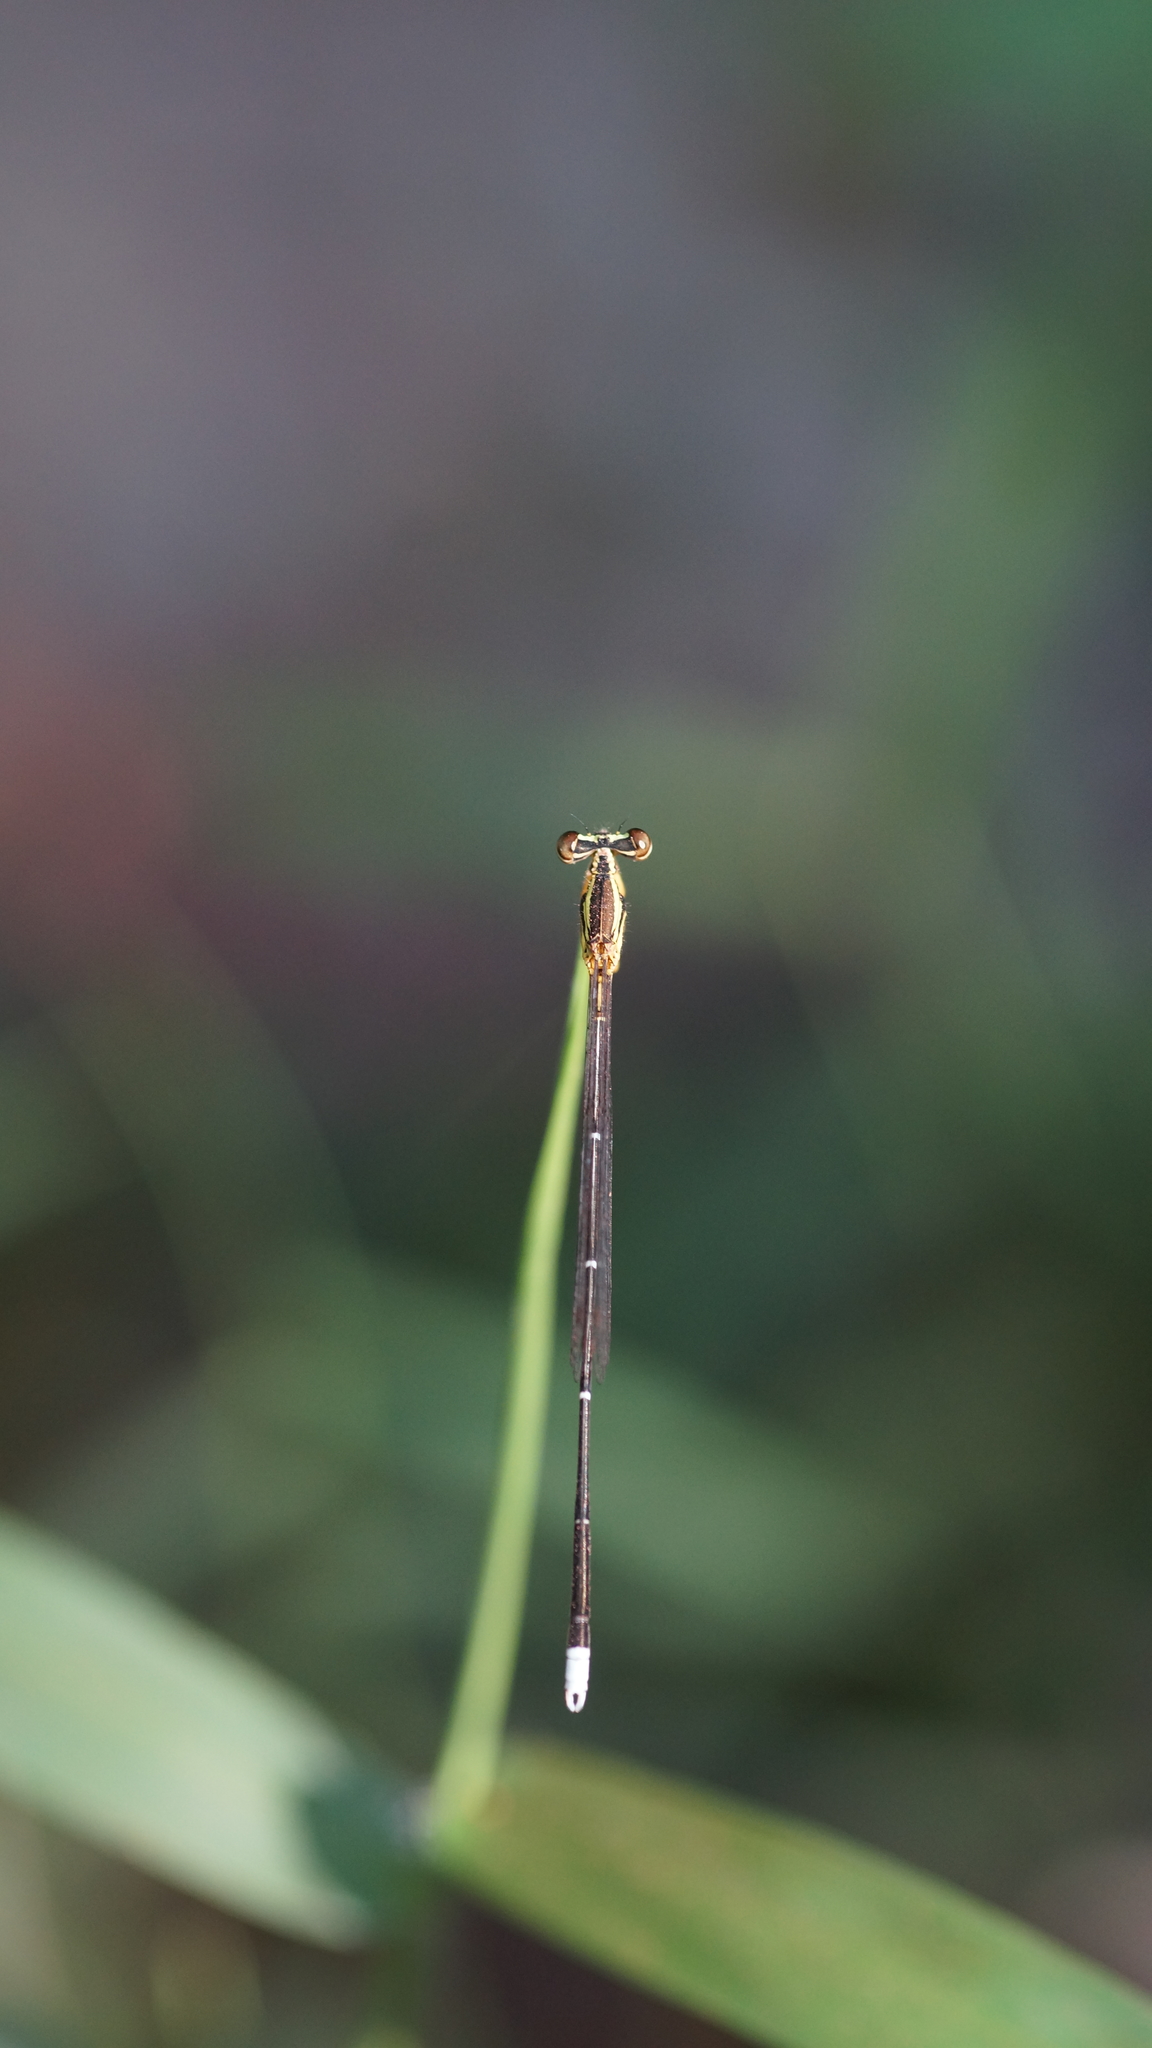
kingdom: Animalia
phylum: Arthropoda
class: Insecta
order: Odonata
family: Platycnemididae
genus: Copera
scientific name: Copera marginipes
